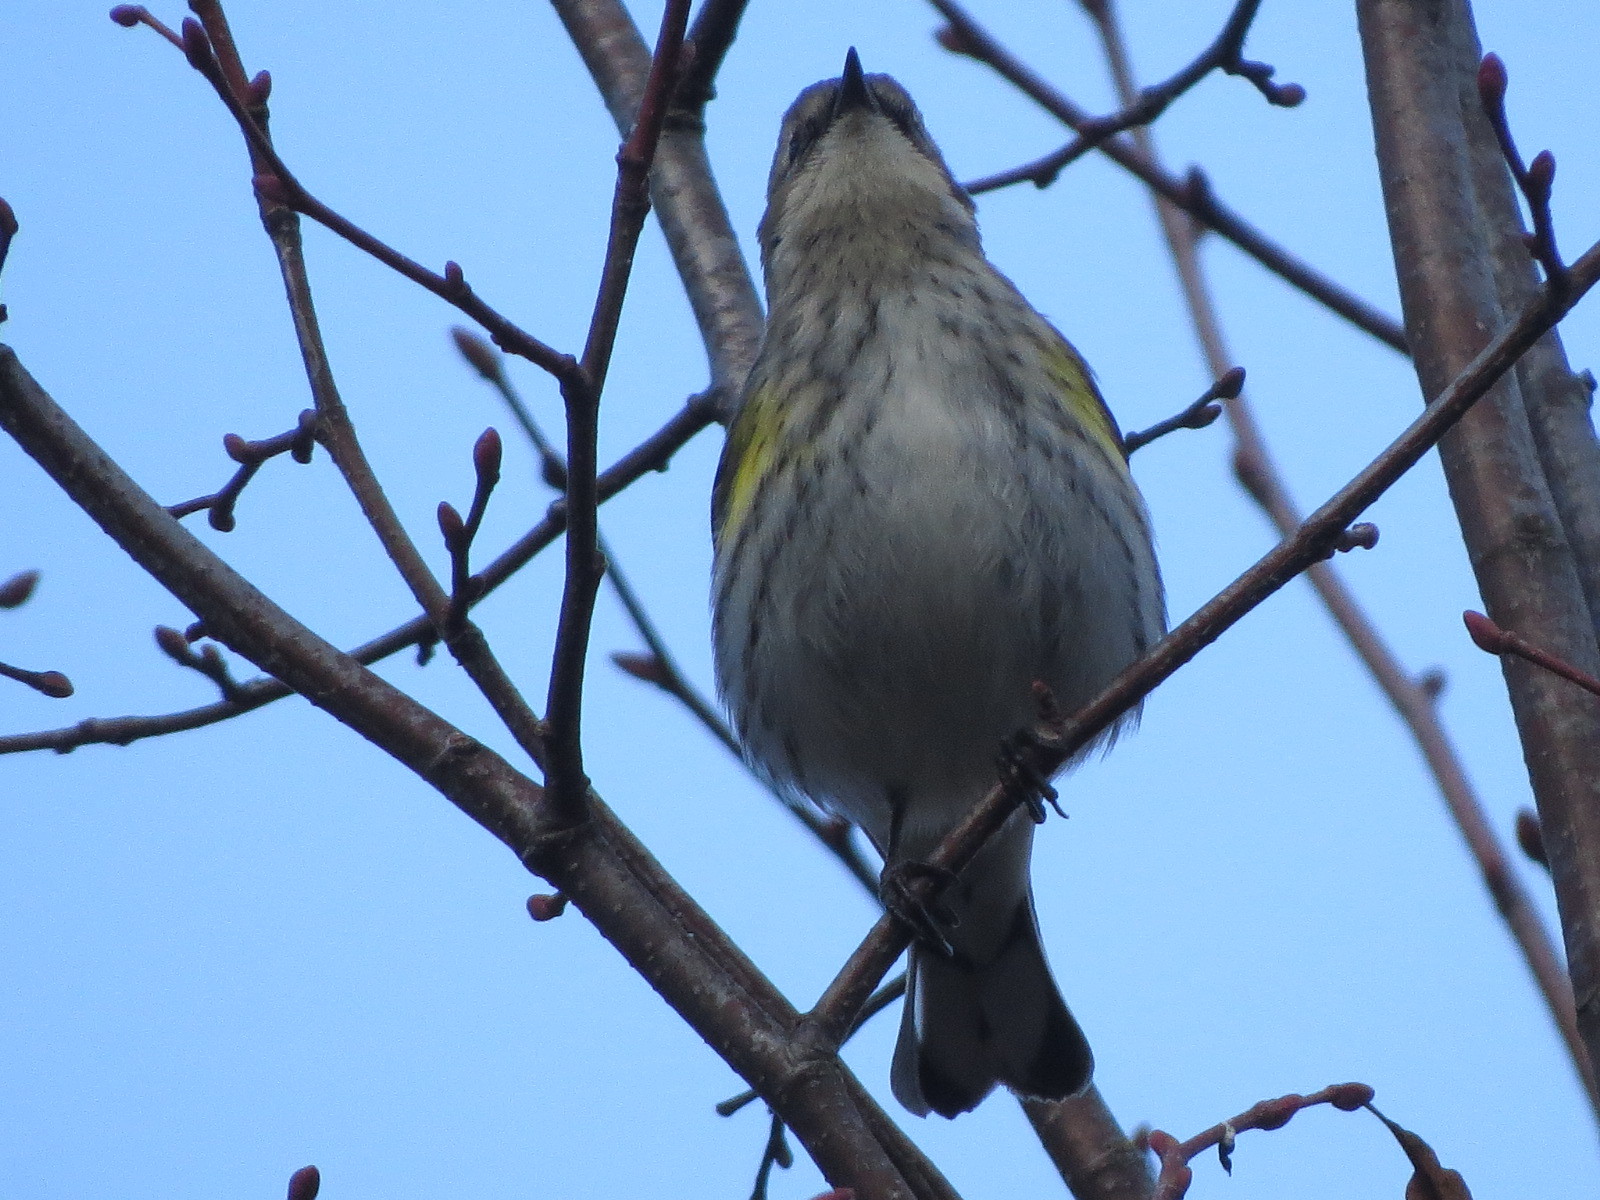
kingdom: Animalia
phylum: Chordata
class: Aves
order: Passeriformes
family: Parulidae
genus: Setophaga
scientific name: Setophaga coronata
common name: Myrtle warbler
